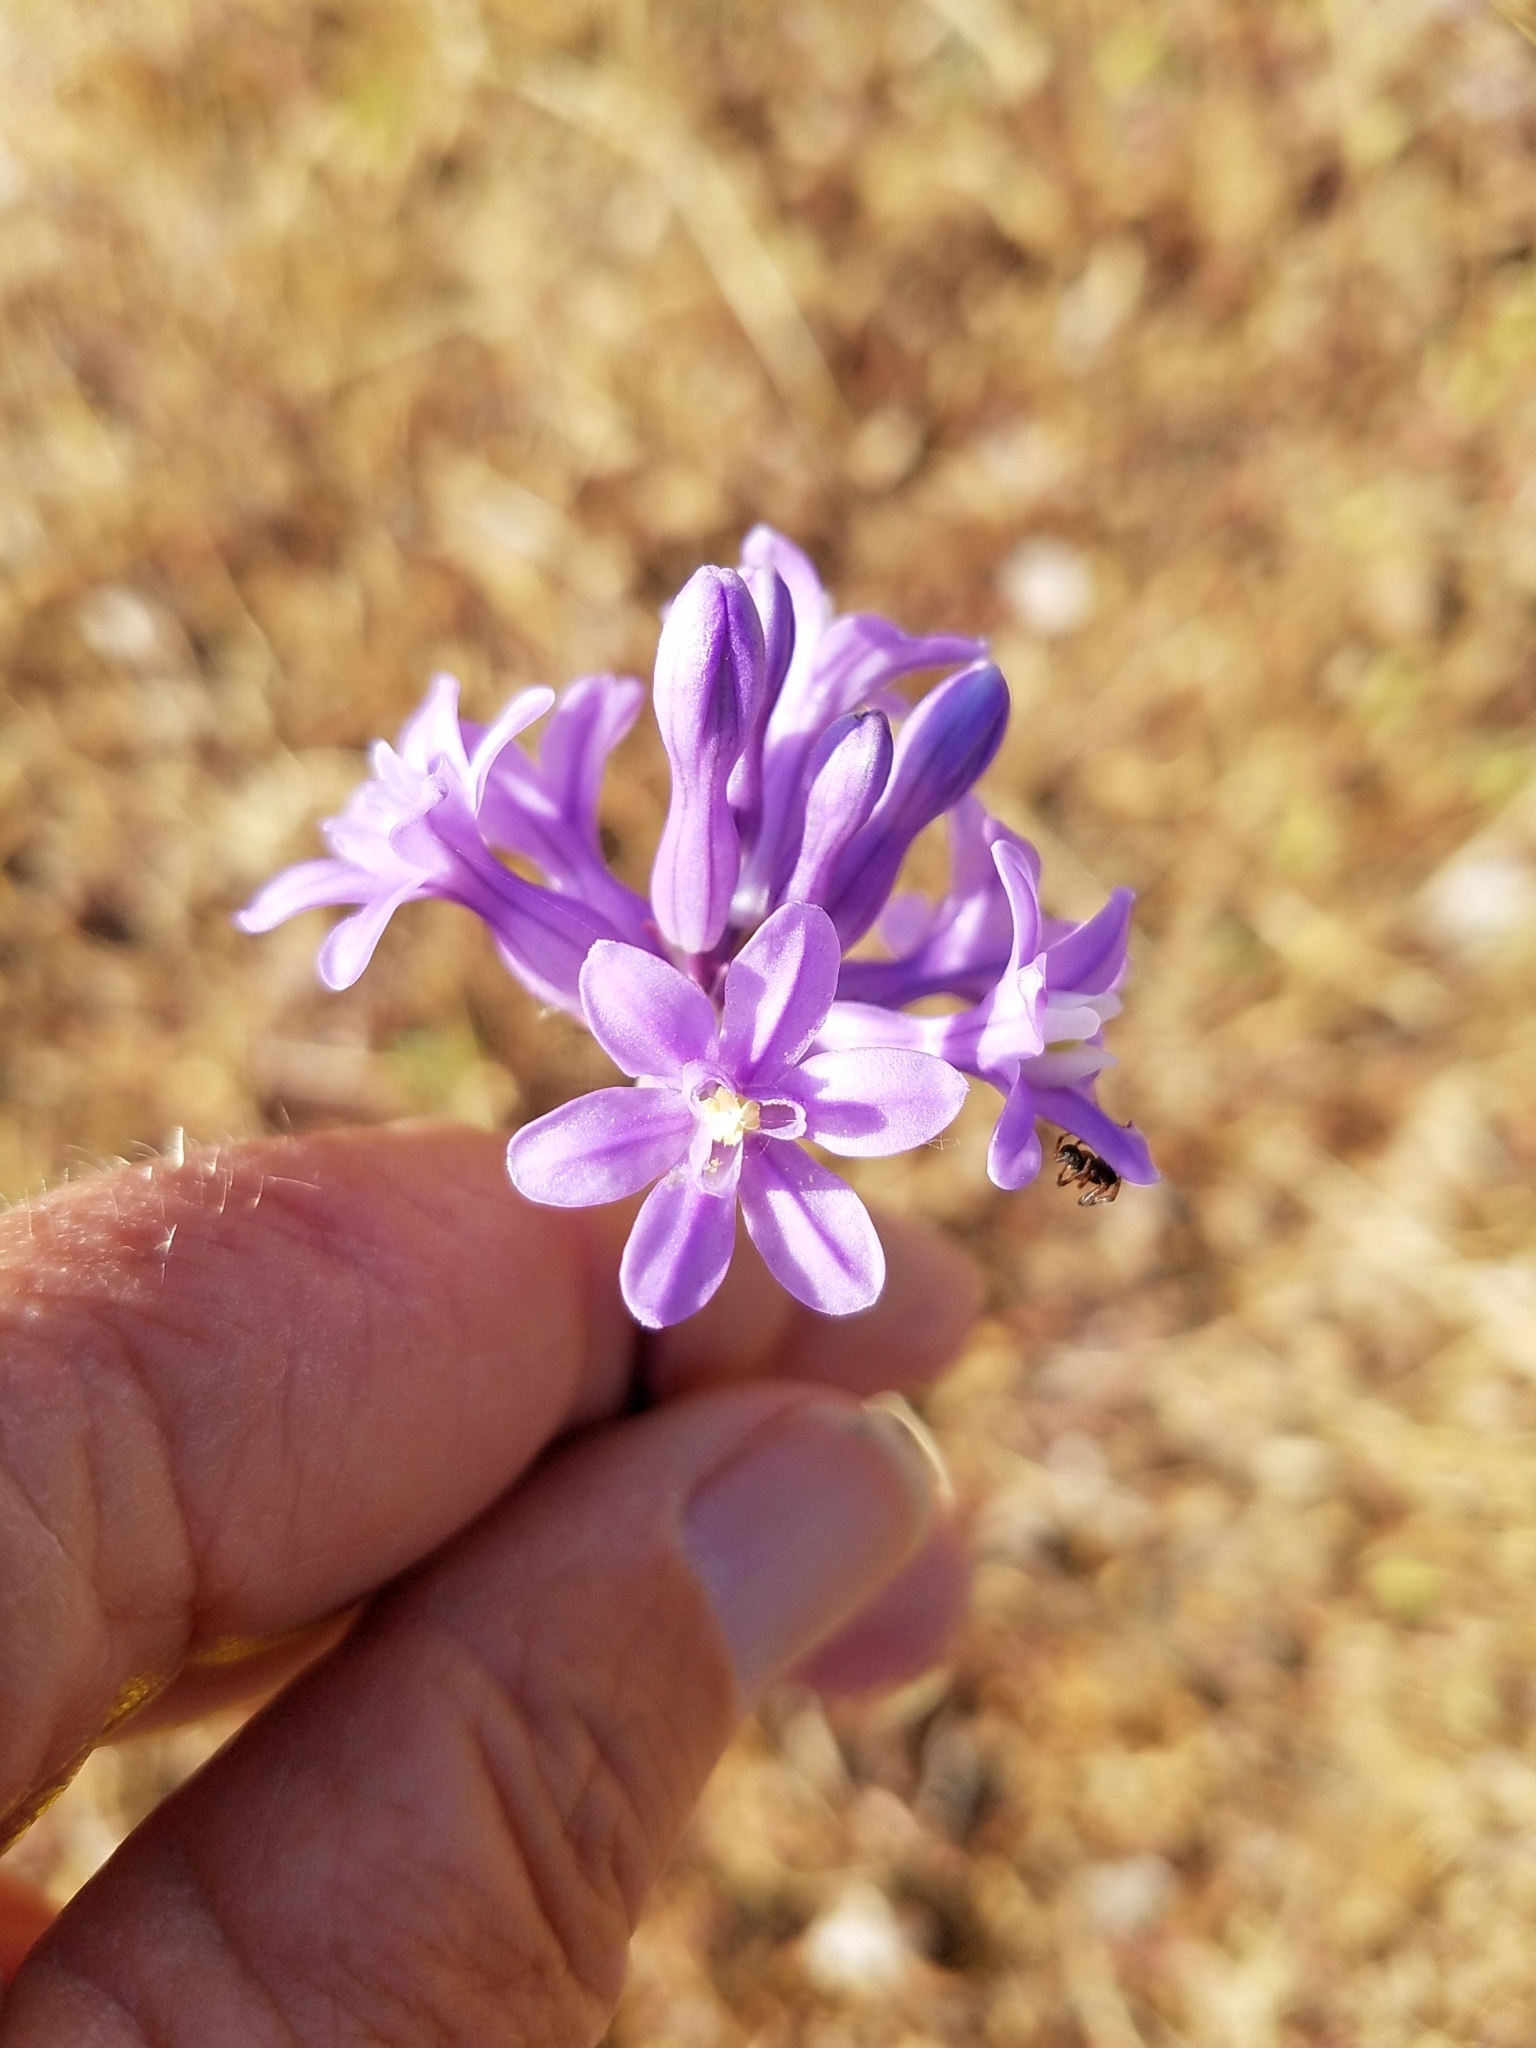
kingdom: Plantae
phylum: Tracheophyta
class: Liliopsida
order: Asparagales
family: Asparagaceae
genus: Dichelostemma
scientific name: Dichelostemma multiflorum
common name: Round-tooth ookow
